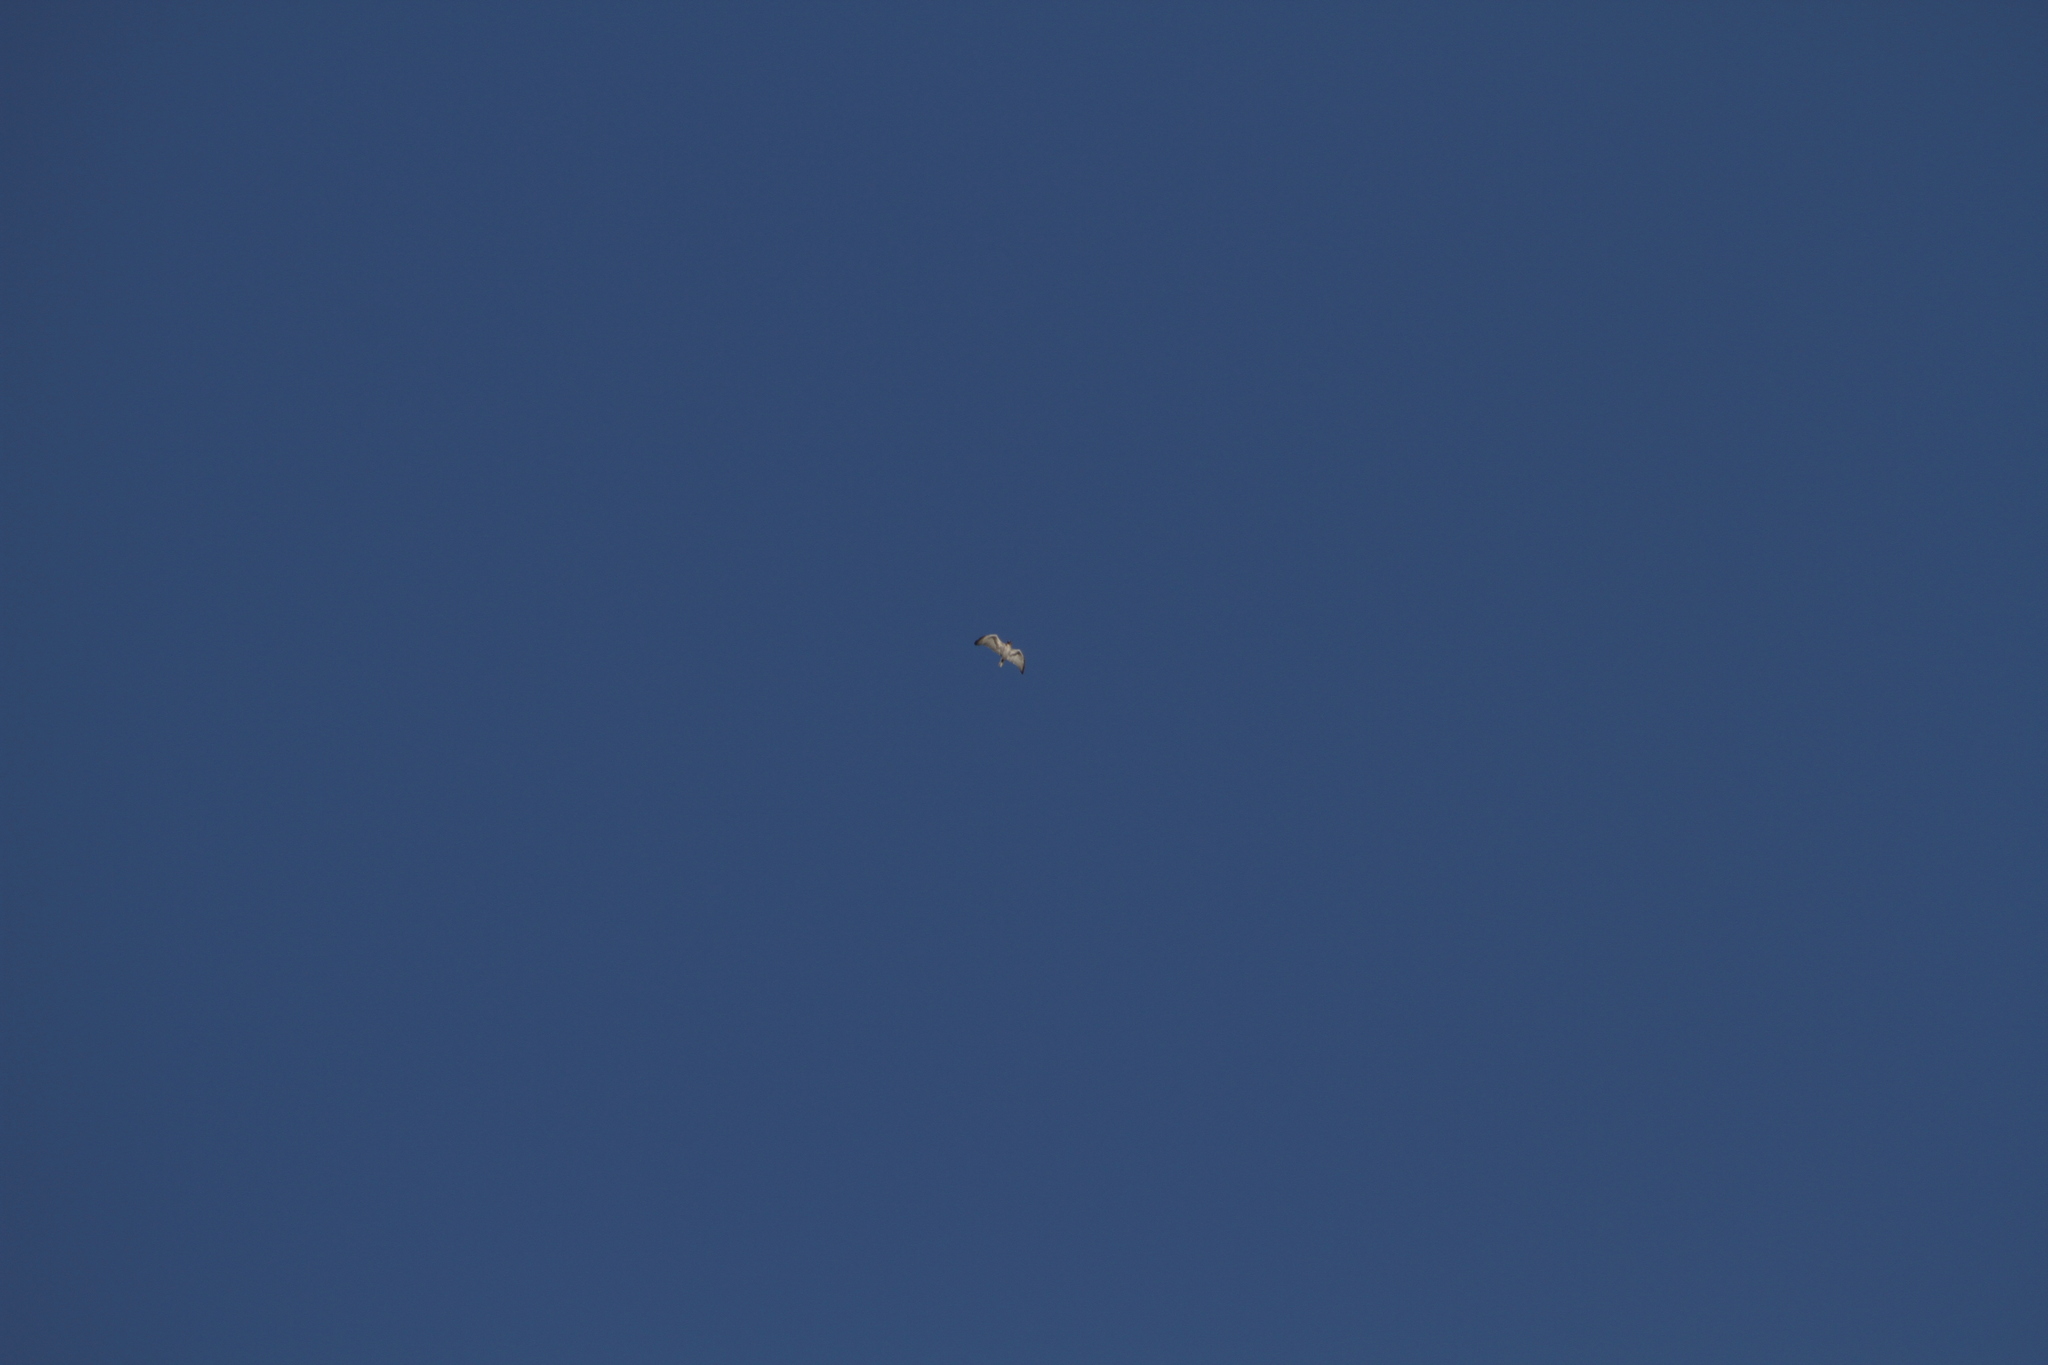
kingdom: Animalia
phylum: Chordata
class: Aves
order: Accipitriformes
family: Accipitridae
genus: Circaetus
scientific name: Circaetus gallicus
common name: Short-toed snake eagle
